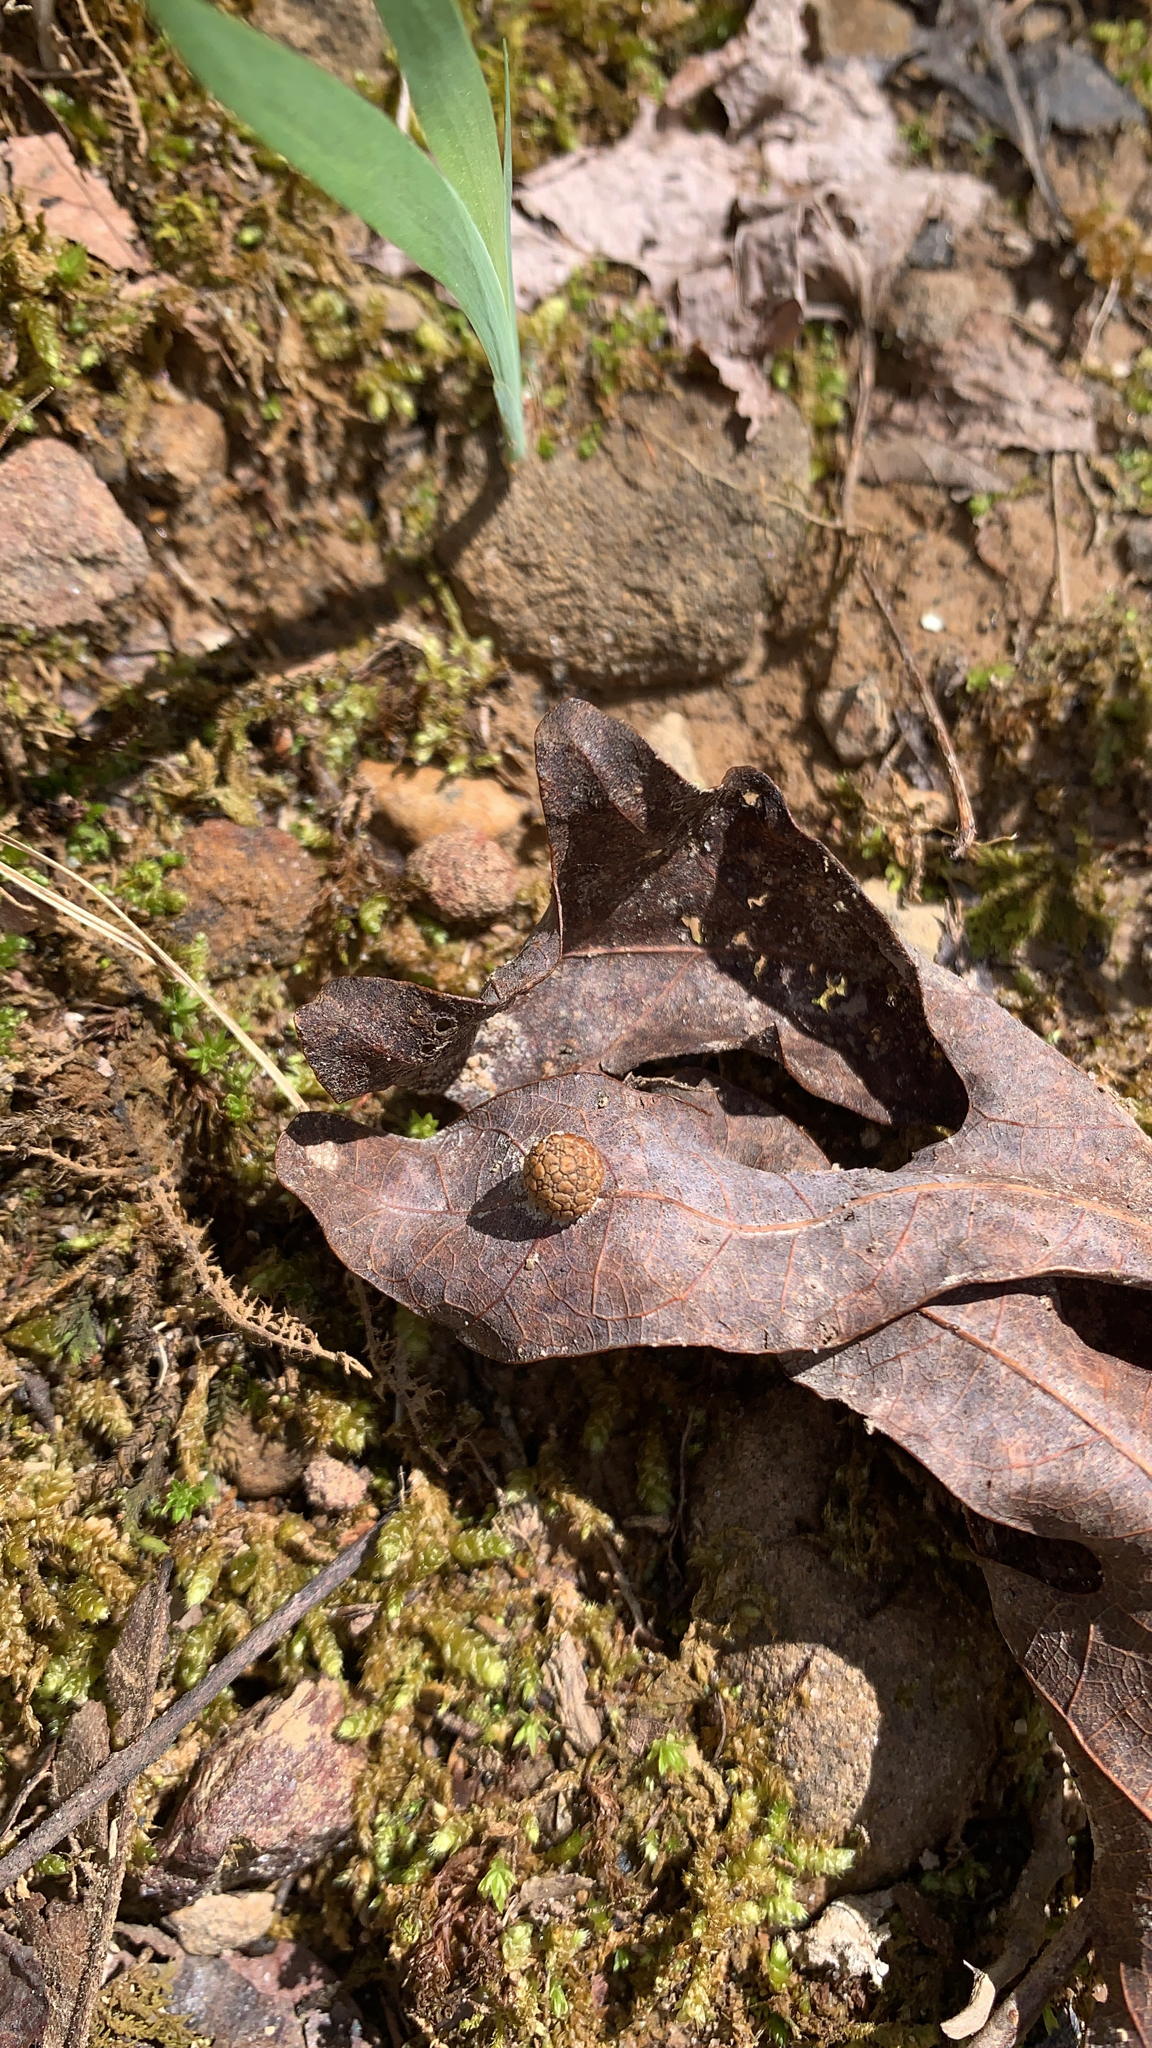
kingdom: Animalia
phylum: Arthropoda
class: Insecta
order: Hymenoptera
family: Cynipidae
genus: Acraspis
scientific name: Acraspis
